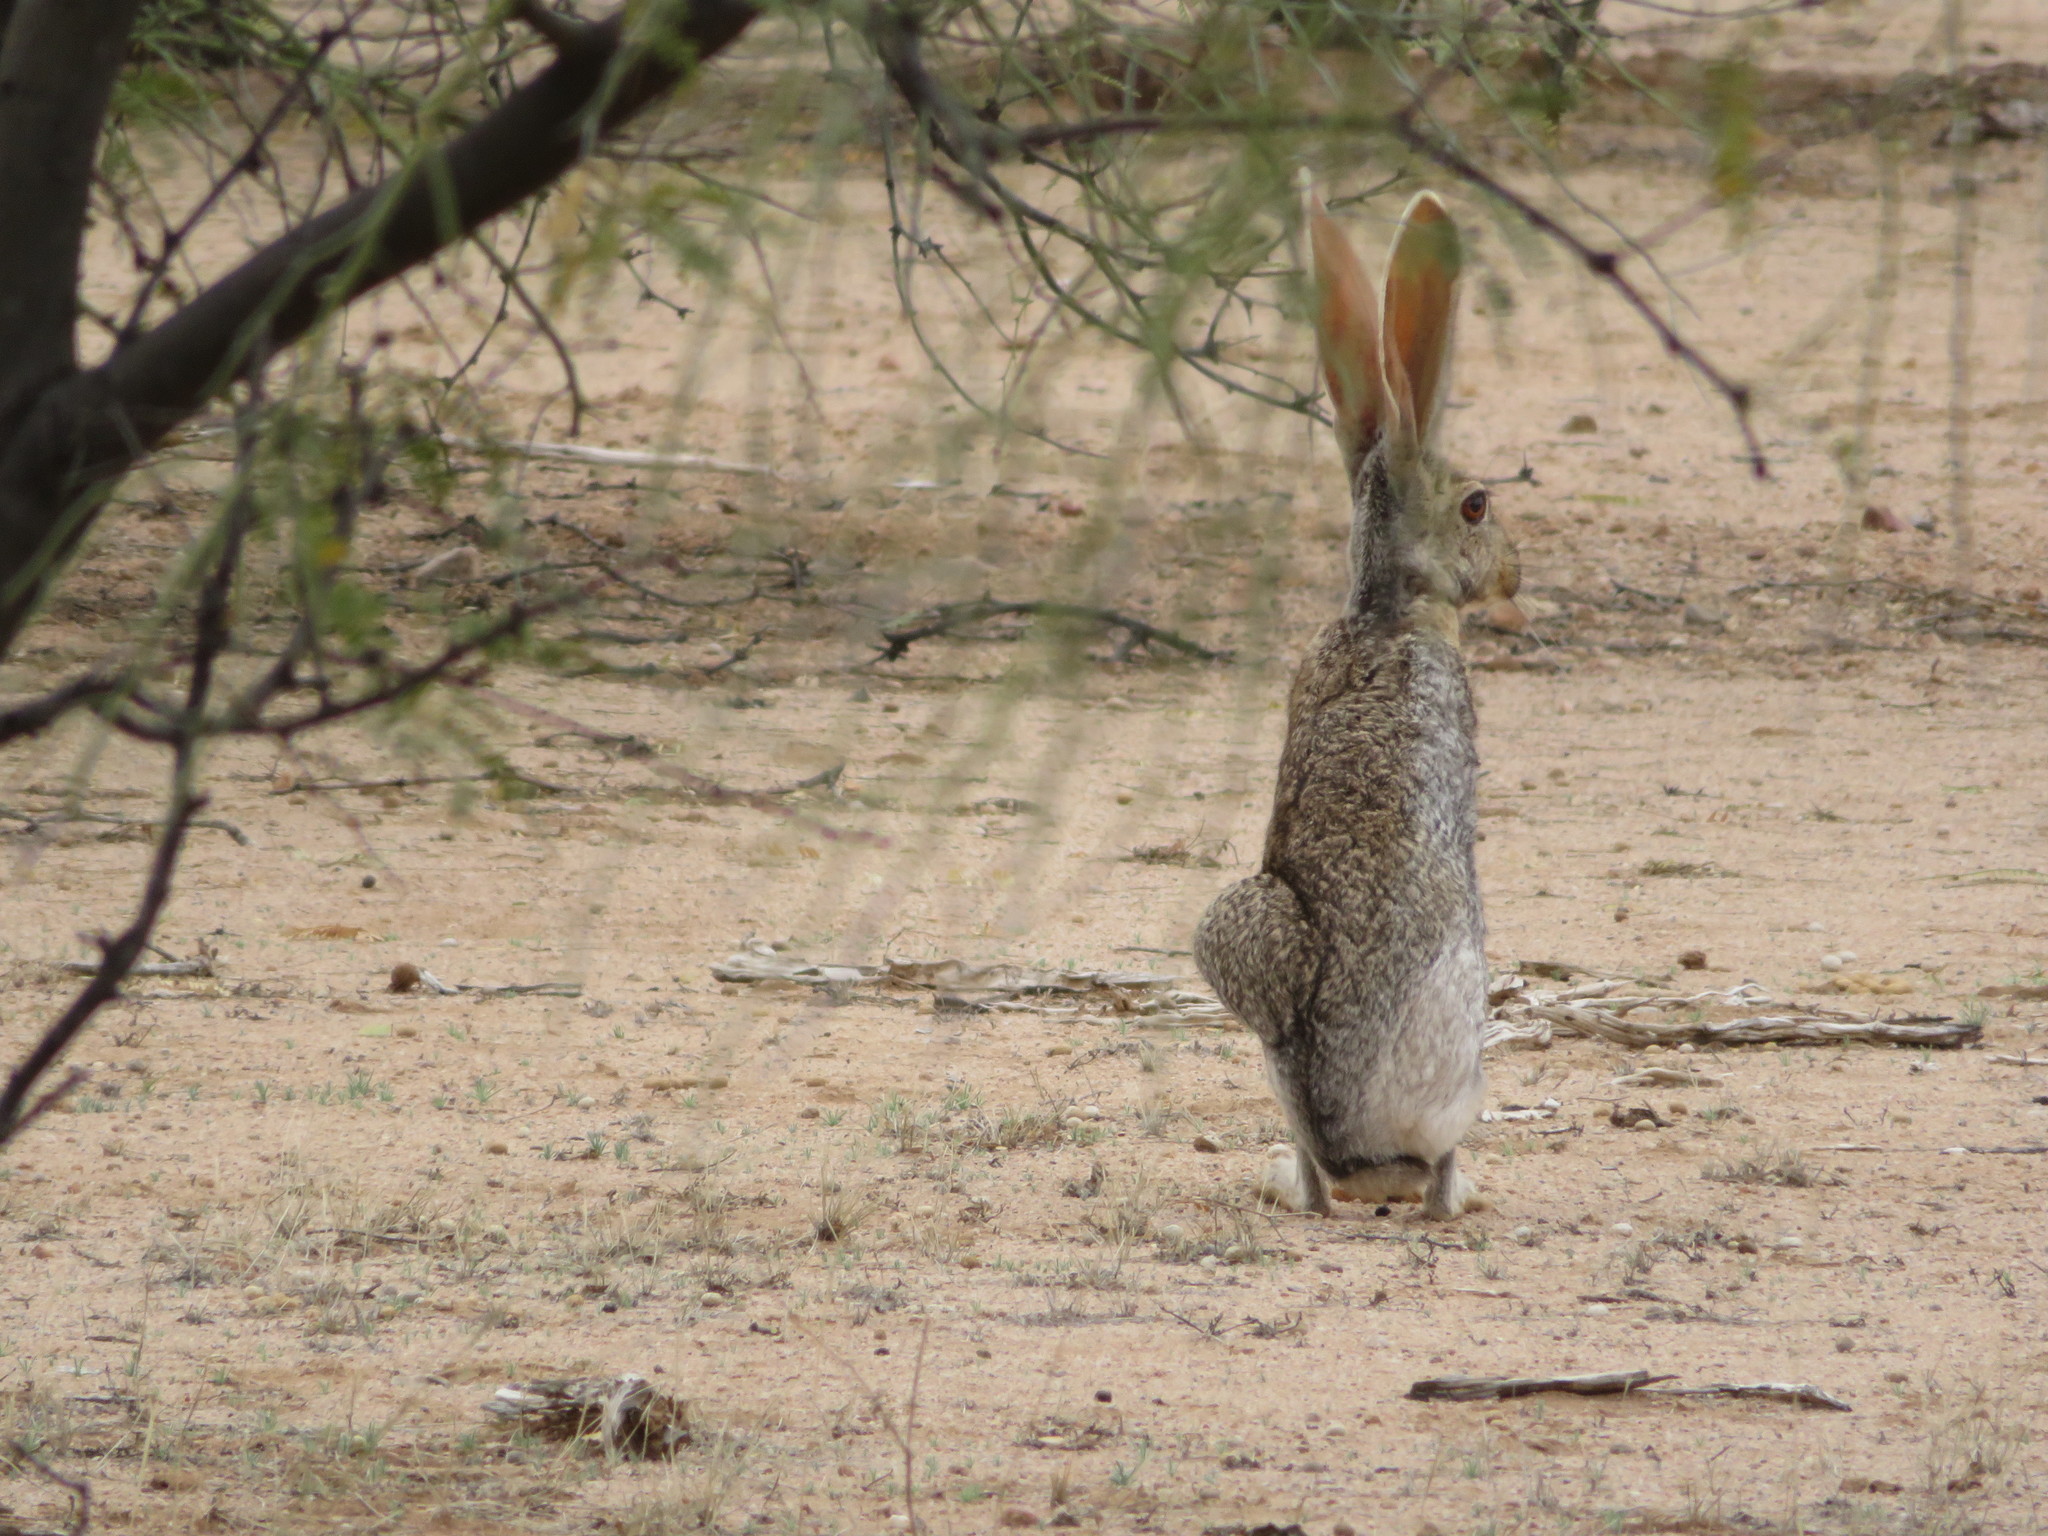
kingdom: Animalia
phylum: Chordata
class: Mammalia
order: Lagomorpha
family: Leporidae
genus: Lepus
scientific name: Lepus alleni
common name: Antelope jackrabbit
